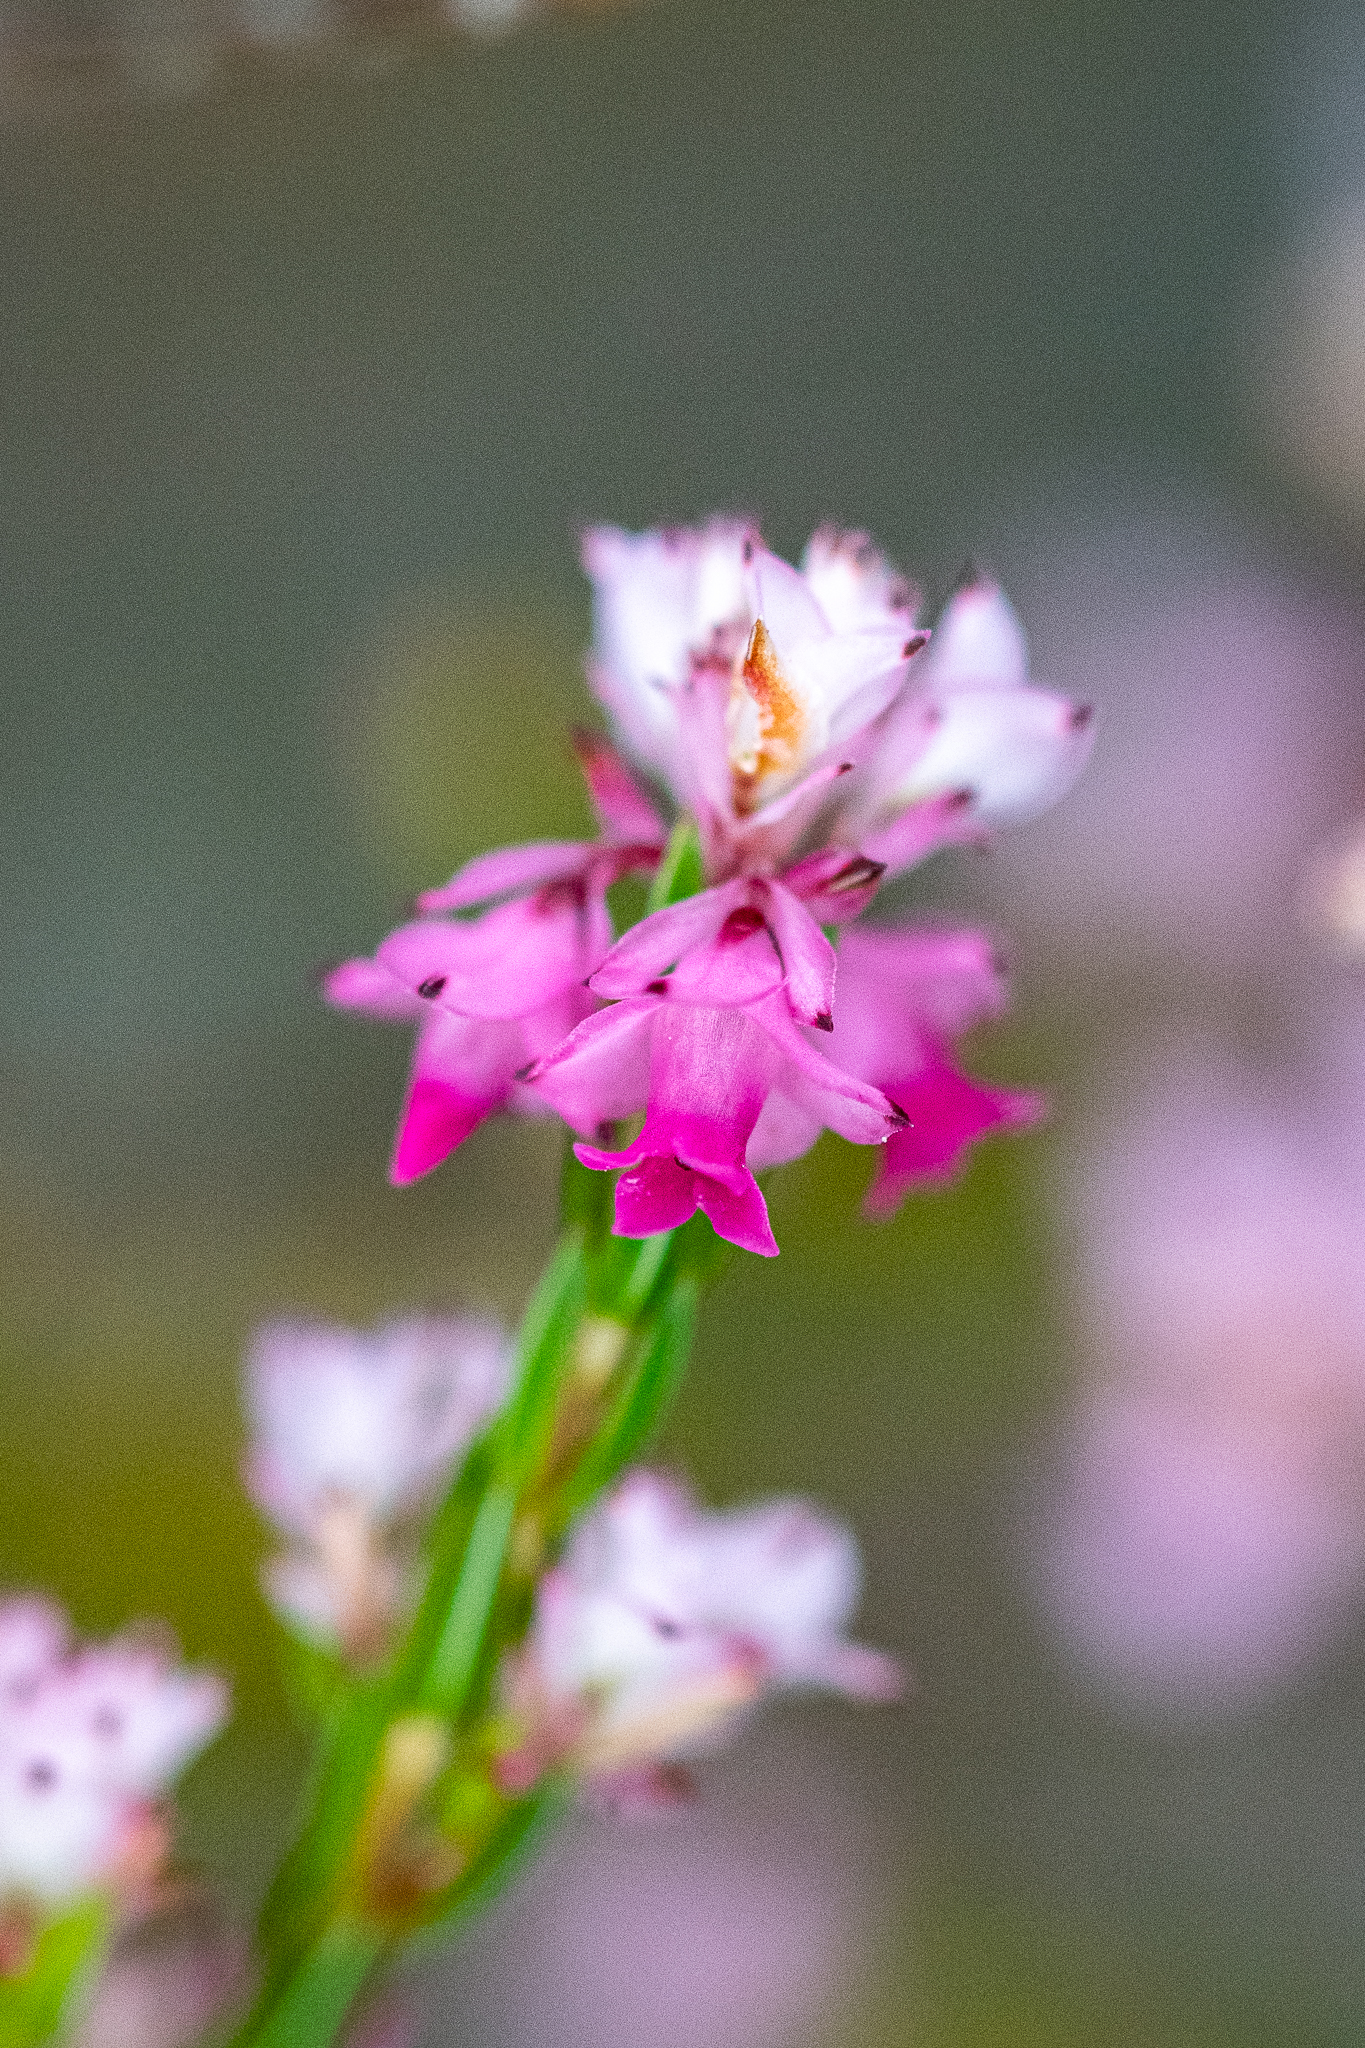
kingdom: Plantae
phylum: Tracheophyta
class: Magnoliopsida
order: Ericales
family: Ericaceae
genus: Erica
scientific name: Erica corifolia
